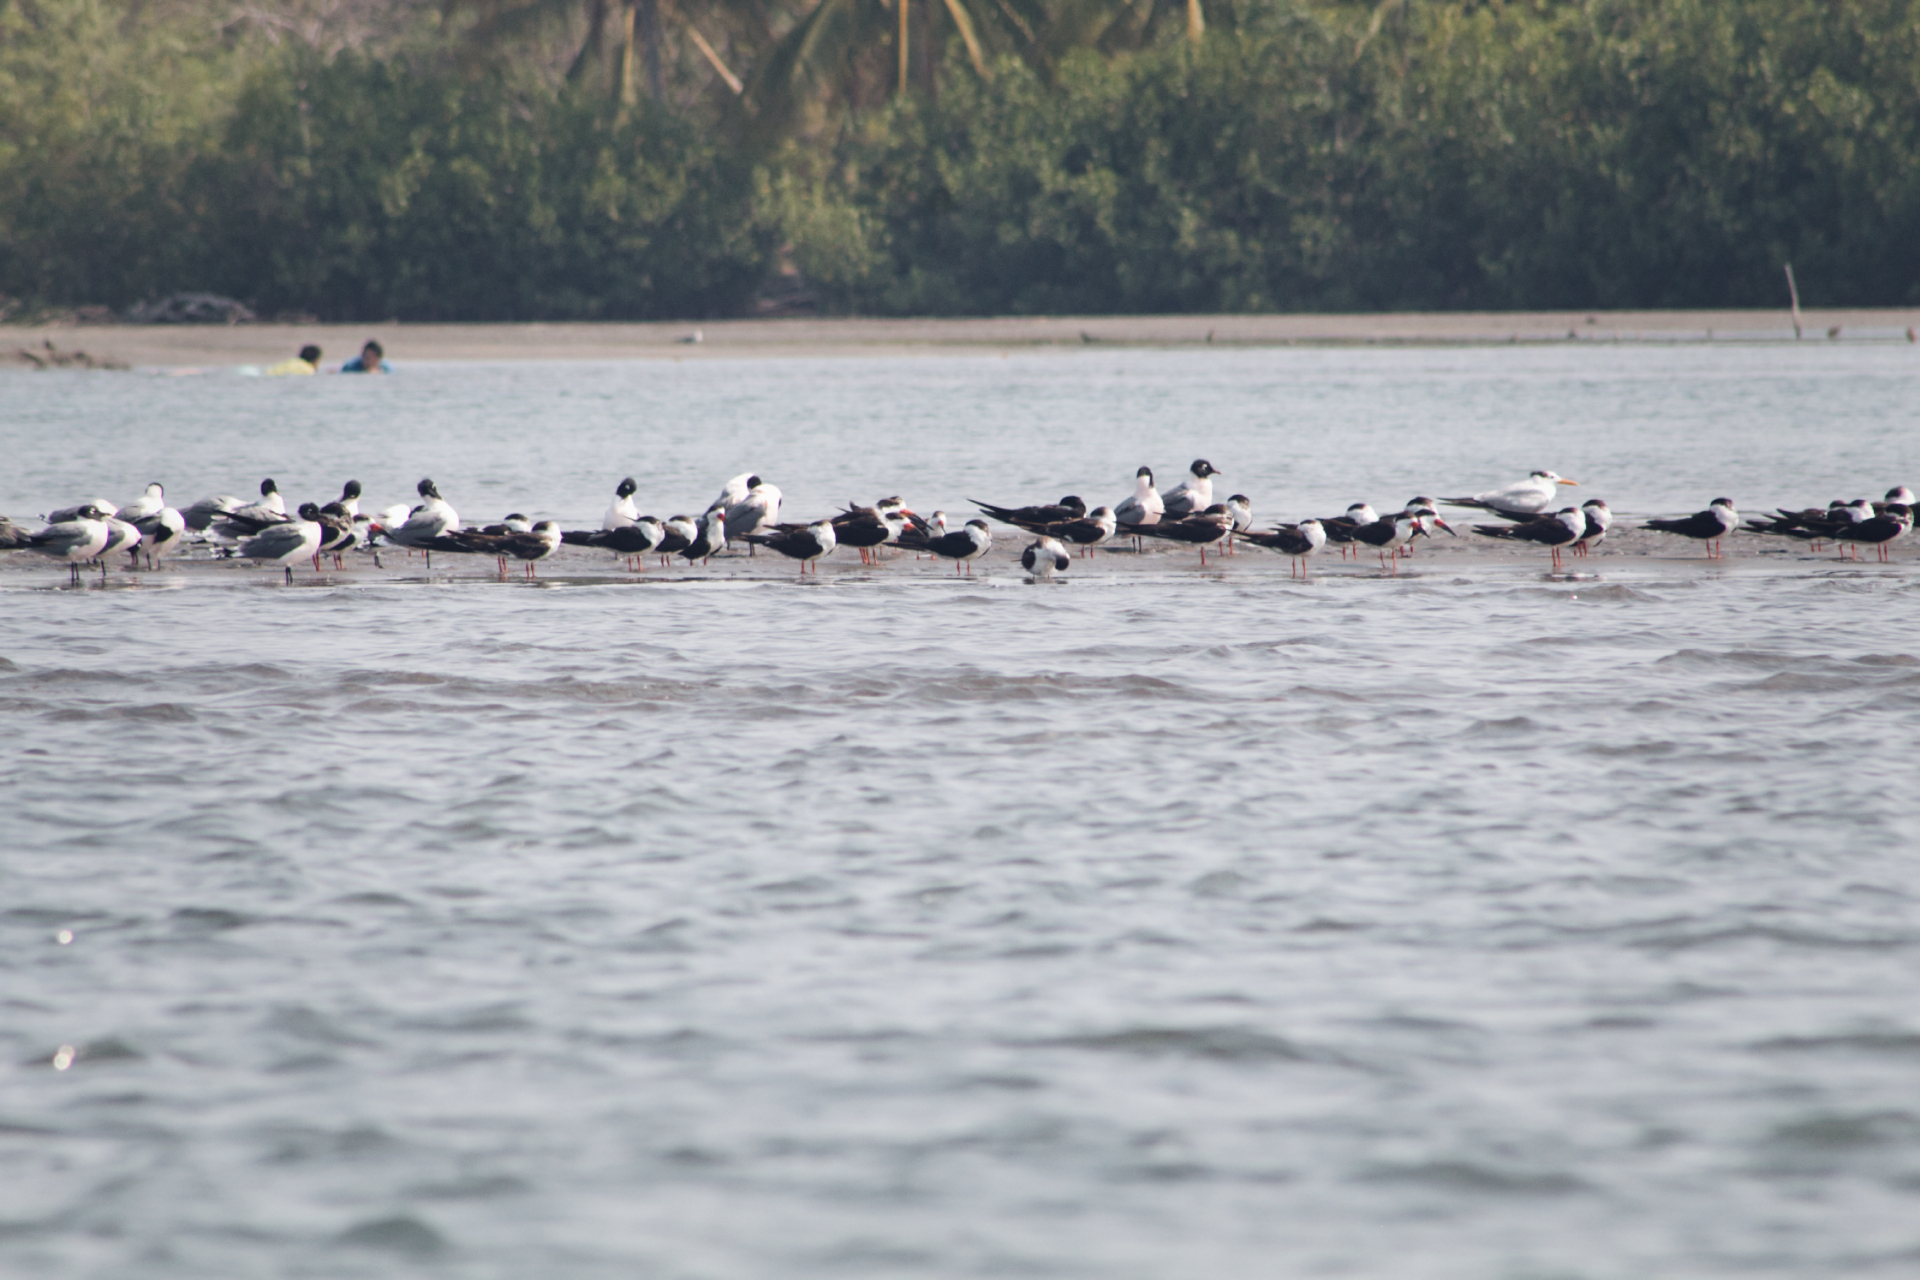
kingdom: Animalia
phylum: Chordata
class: Aves
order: Charadriiformes
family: Laridae
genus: Rynchops
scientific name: Rynchops niger
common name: Black skimmer
